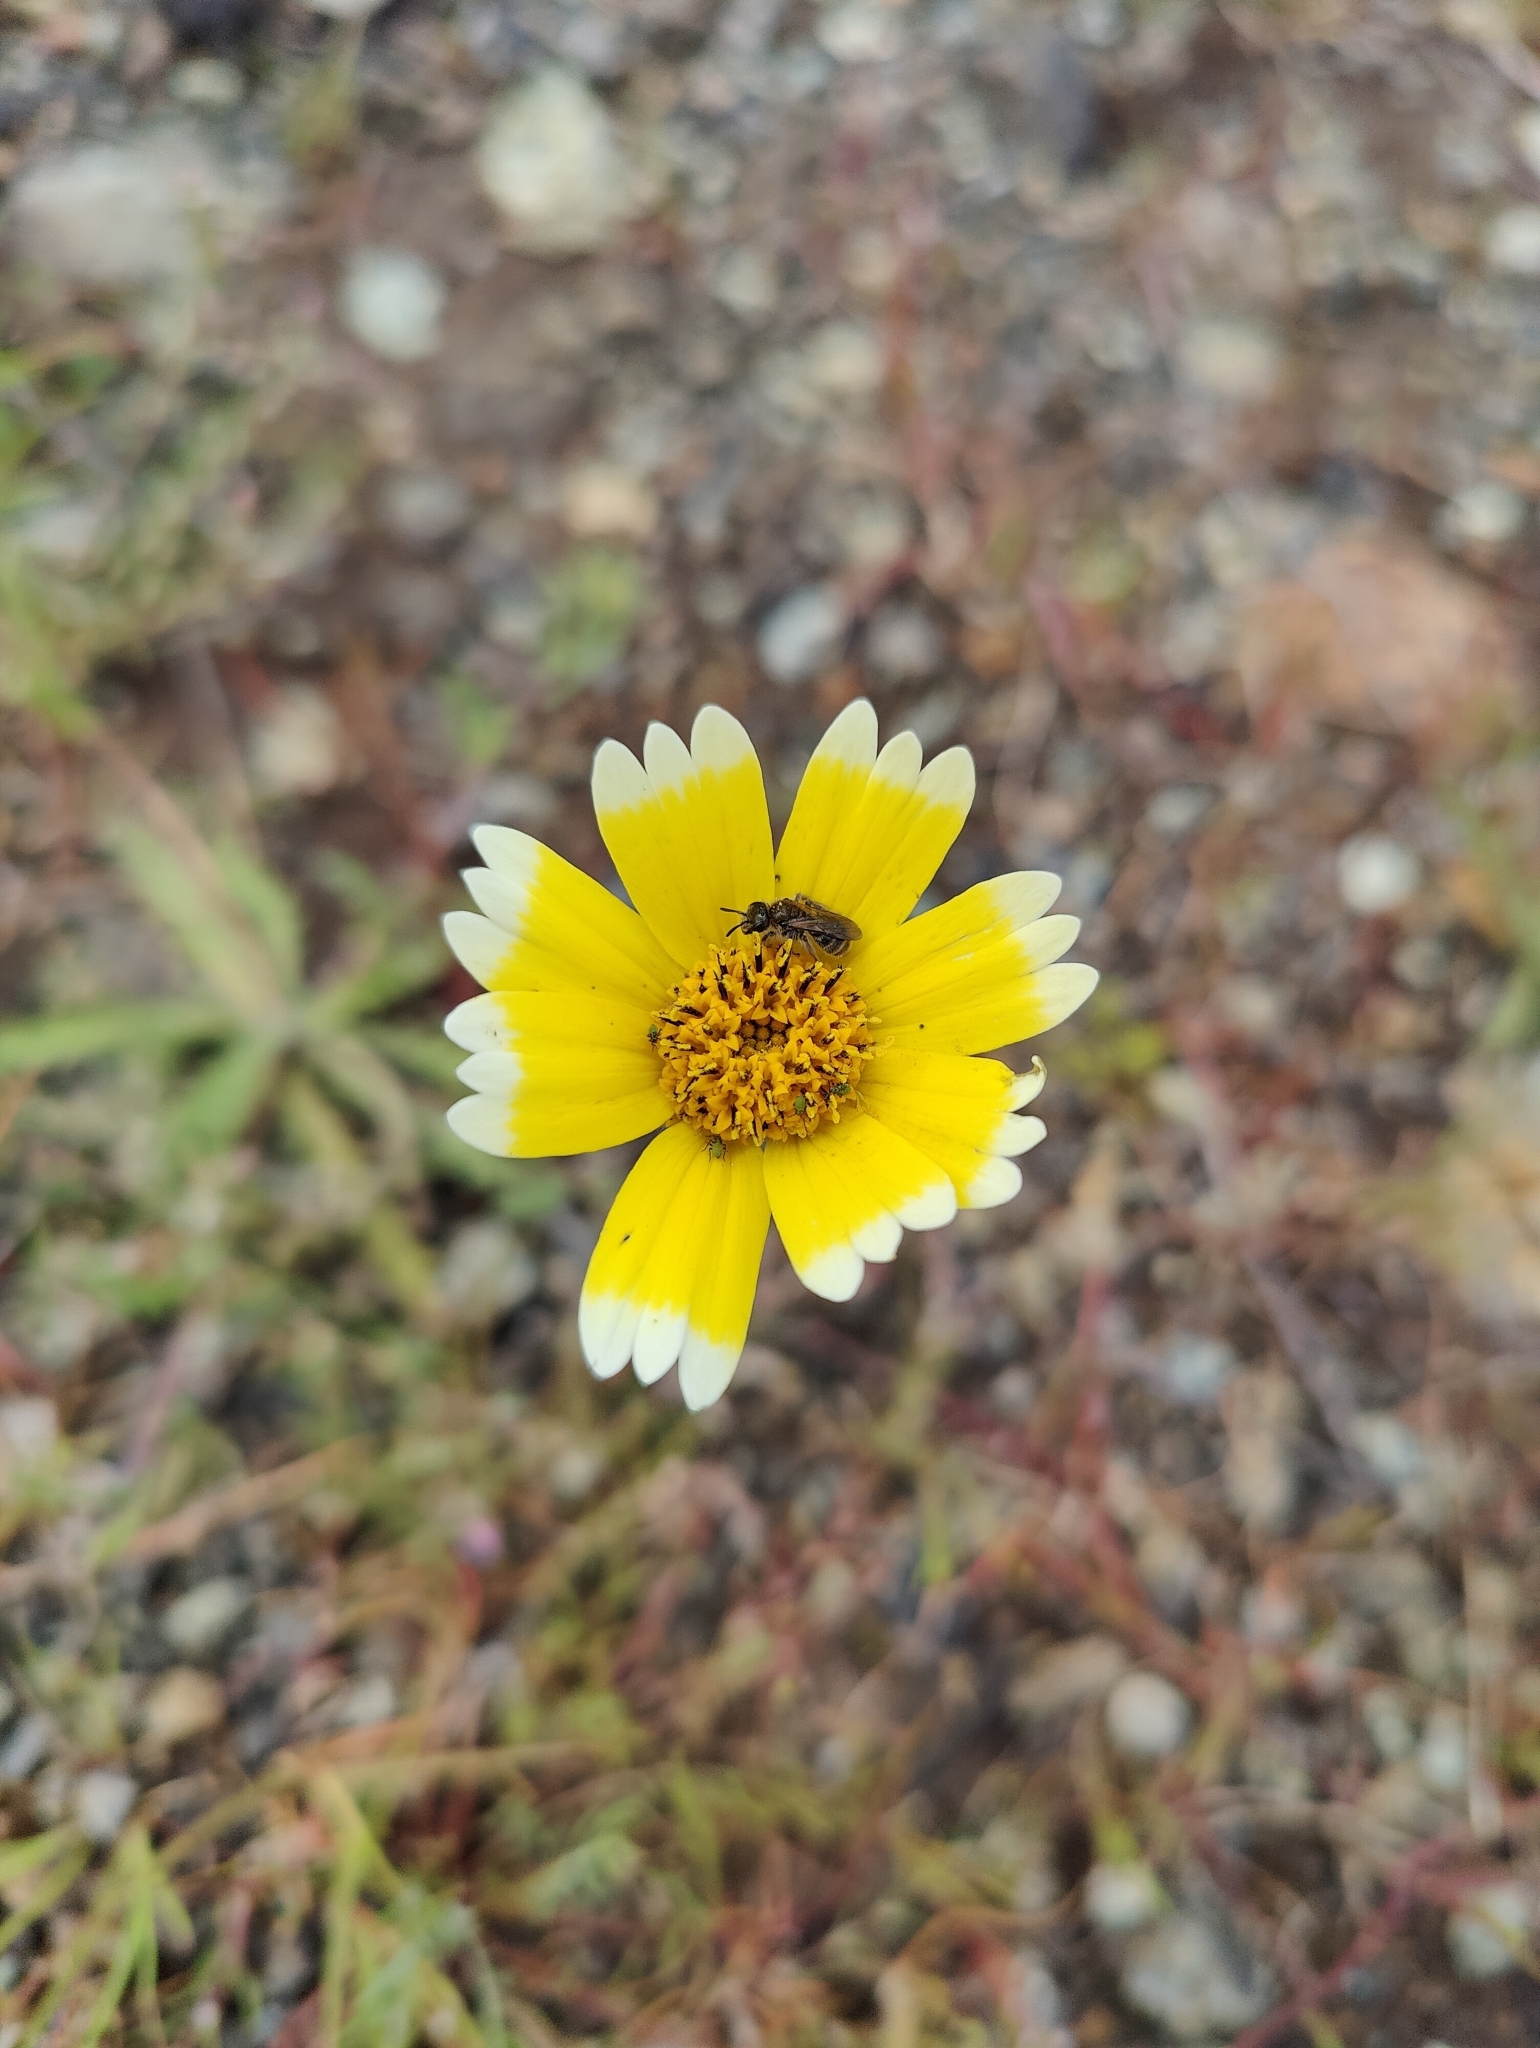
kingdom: Plantae
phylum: Tracheophyta
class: Magnoliopsida
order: Asterales
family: Asteraceae
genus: Layia
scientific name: Layia fremontii
